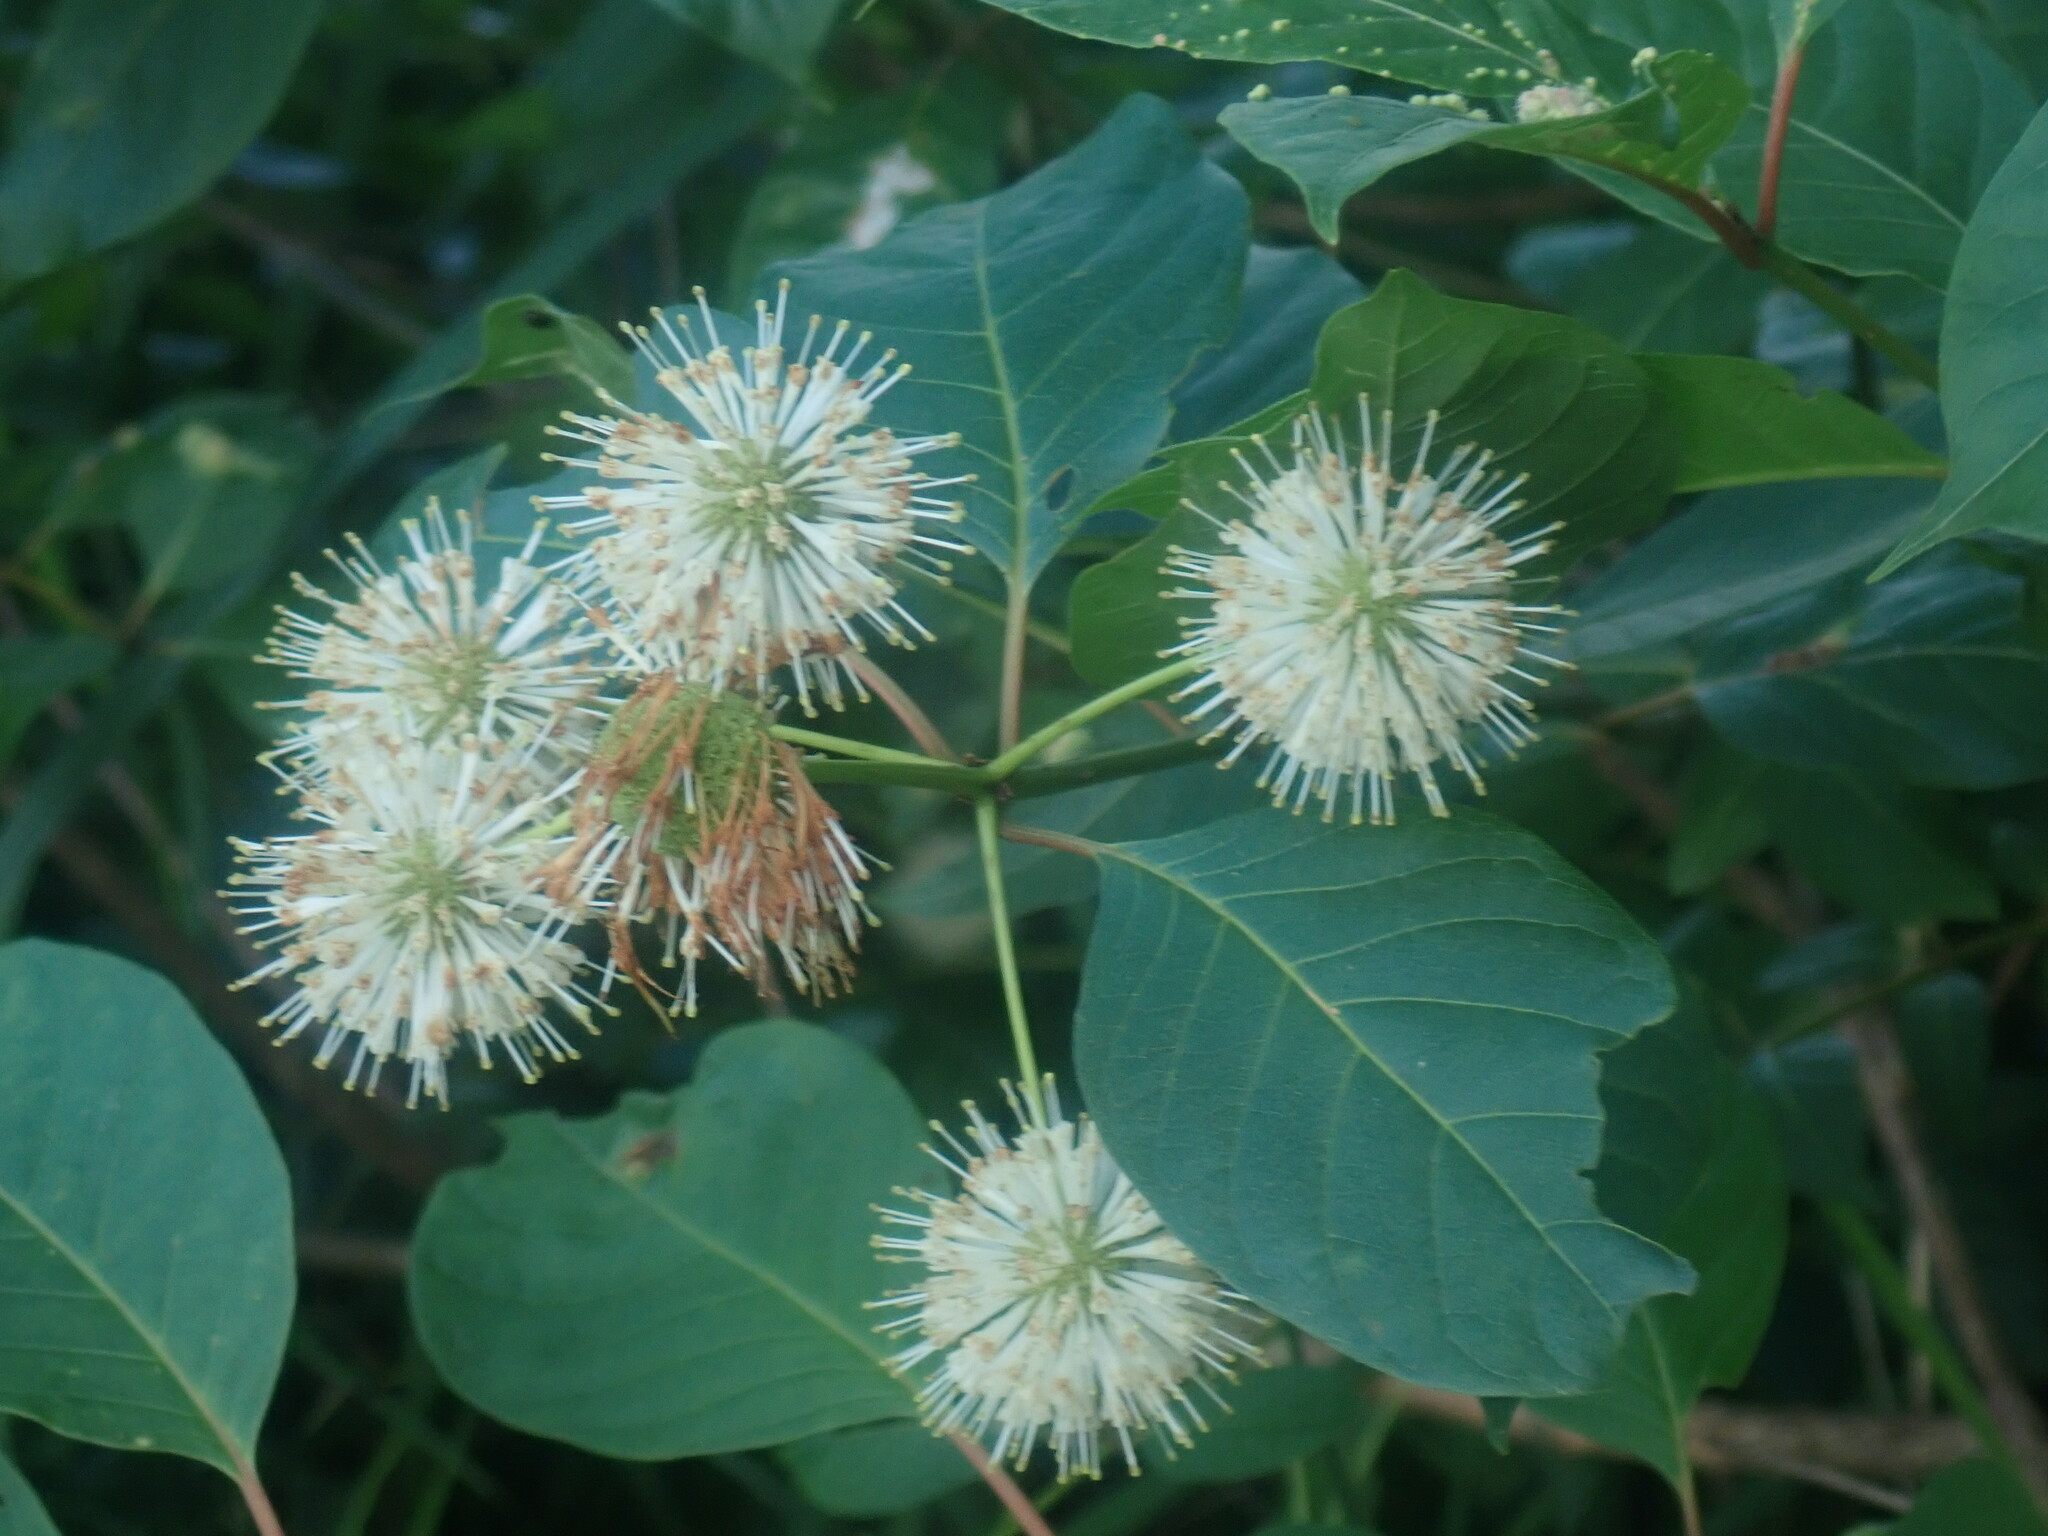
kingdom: Plantae
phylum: Tracheophyta
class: Magnoliopsida
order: Gentianales
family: Rubiaceae
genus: Cephalanthus
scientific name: Cephalanthus occidentalis
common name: Button-willow
